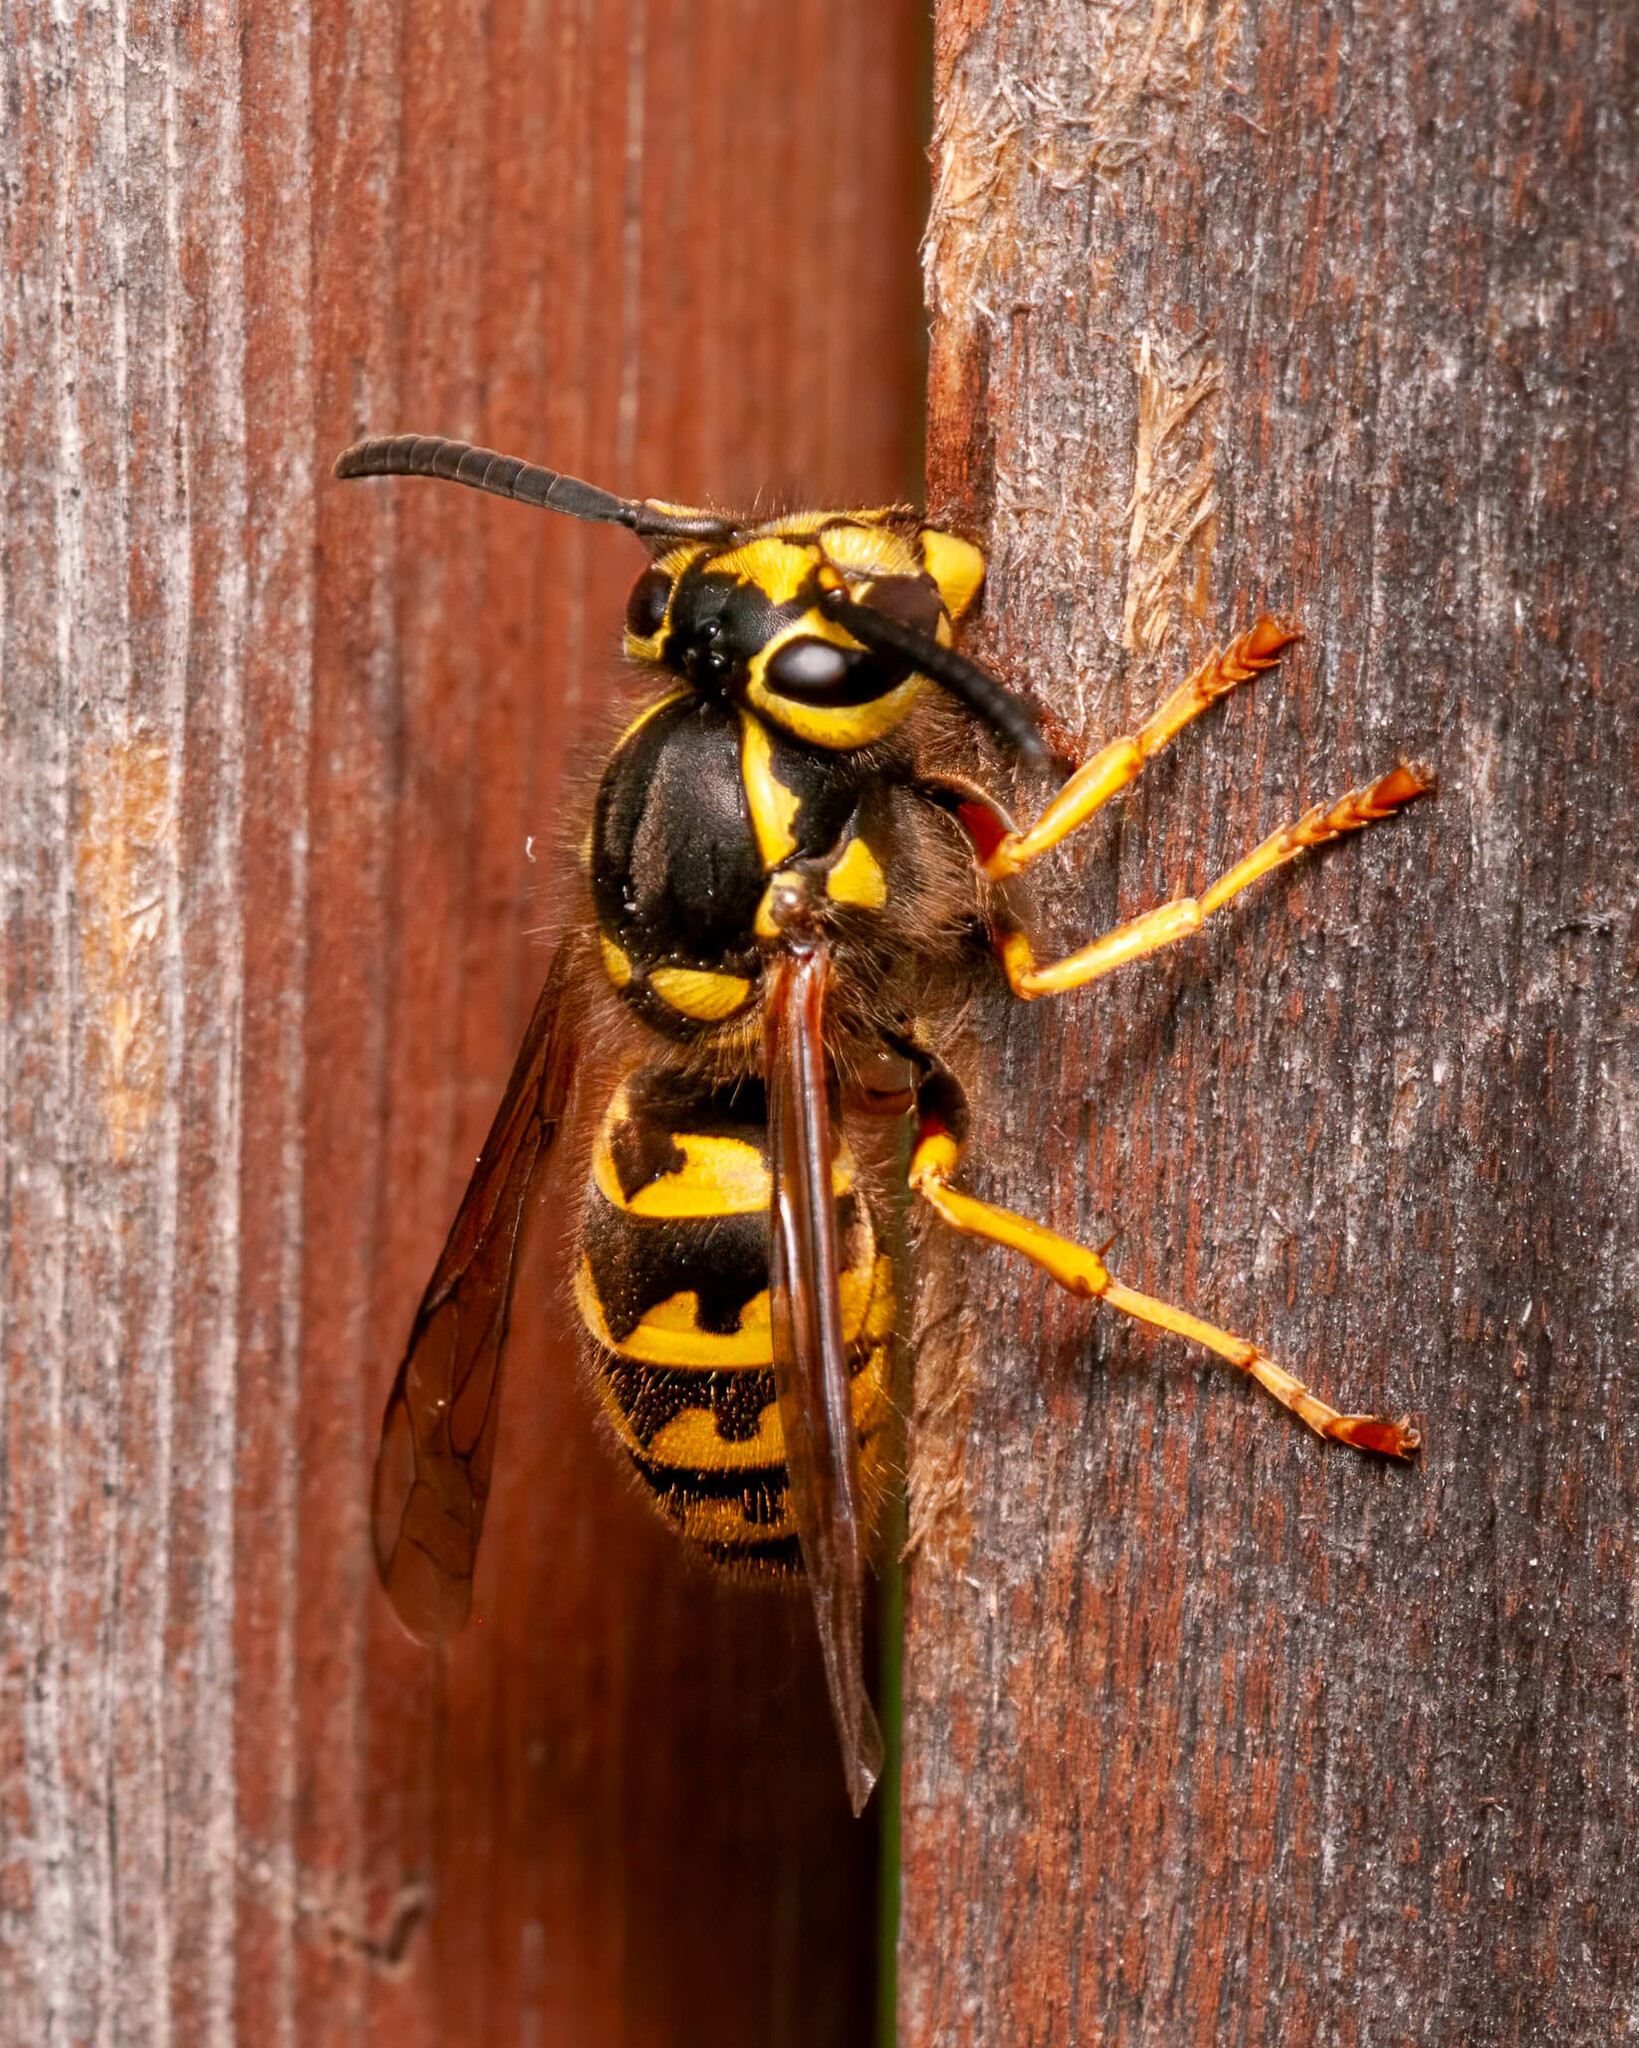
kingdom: Animalia
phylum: Arthropoda
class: Insecta
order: Hymenoptera
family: Vespidae
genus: Vespula
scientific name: Vespula pensylvanica
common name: Western yellowjacket
